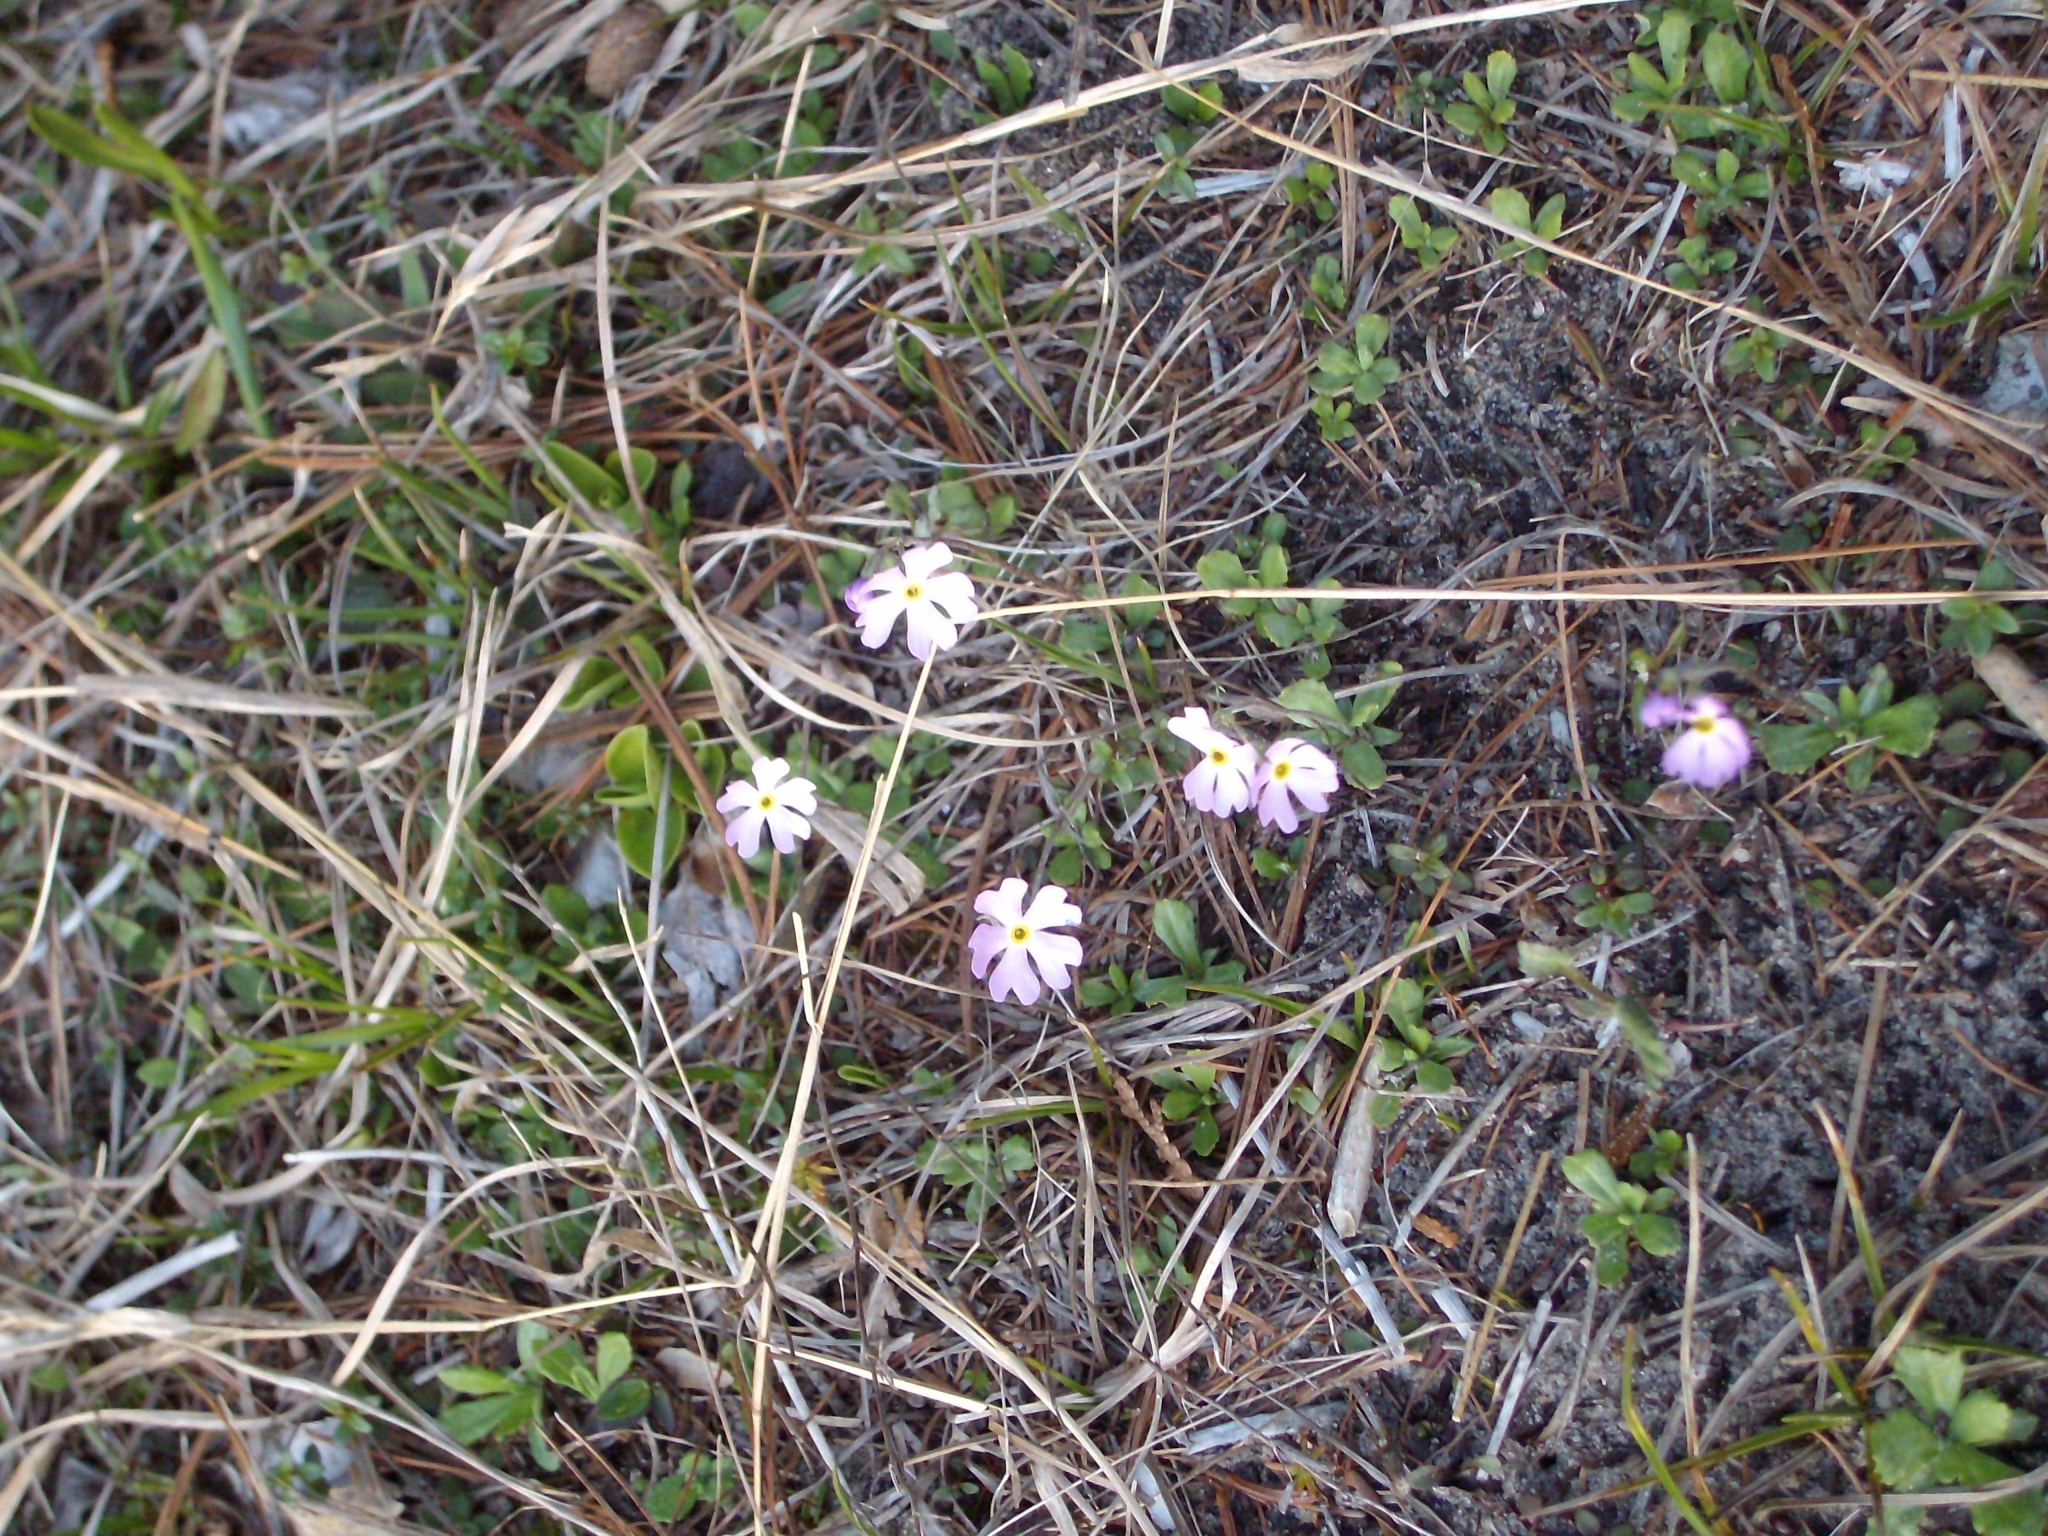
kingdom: Plantae
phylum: Tracheophyta
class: Magnoliopsida
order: Ericales
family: Primulaceae
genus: Primula
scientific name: Primula mistassinica
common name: Bird's-eye primrose
